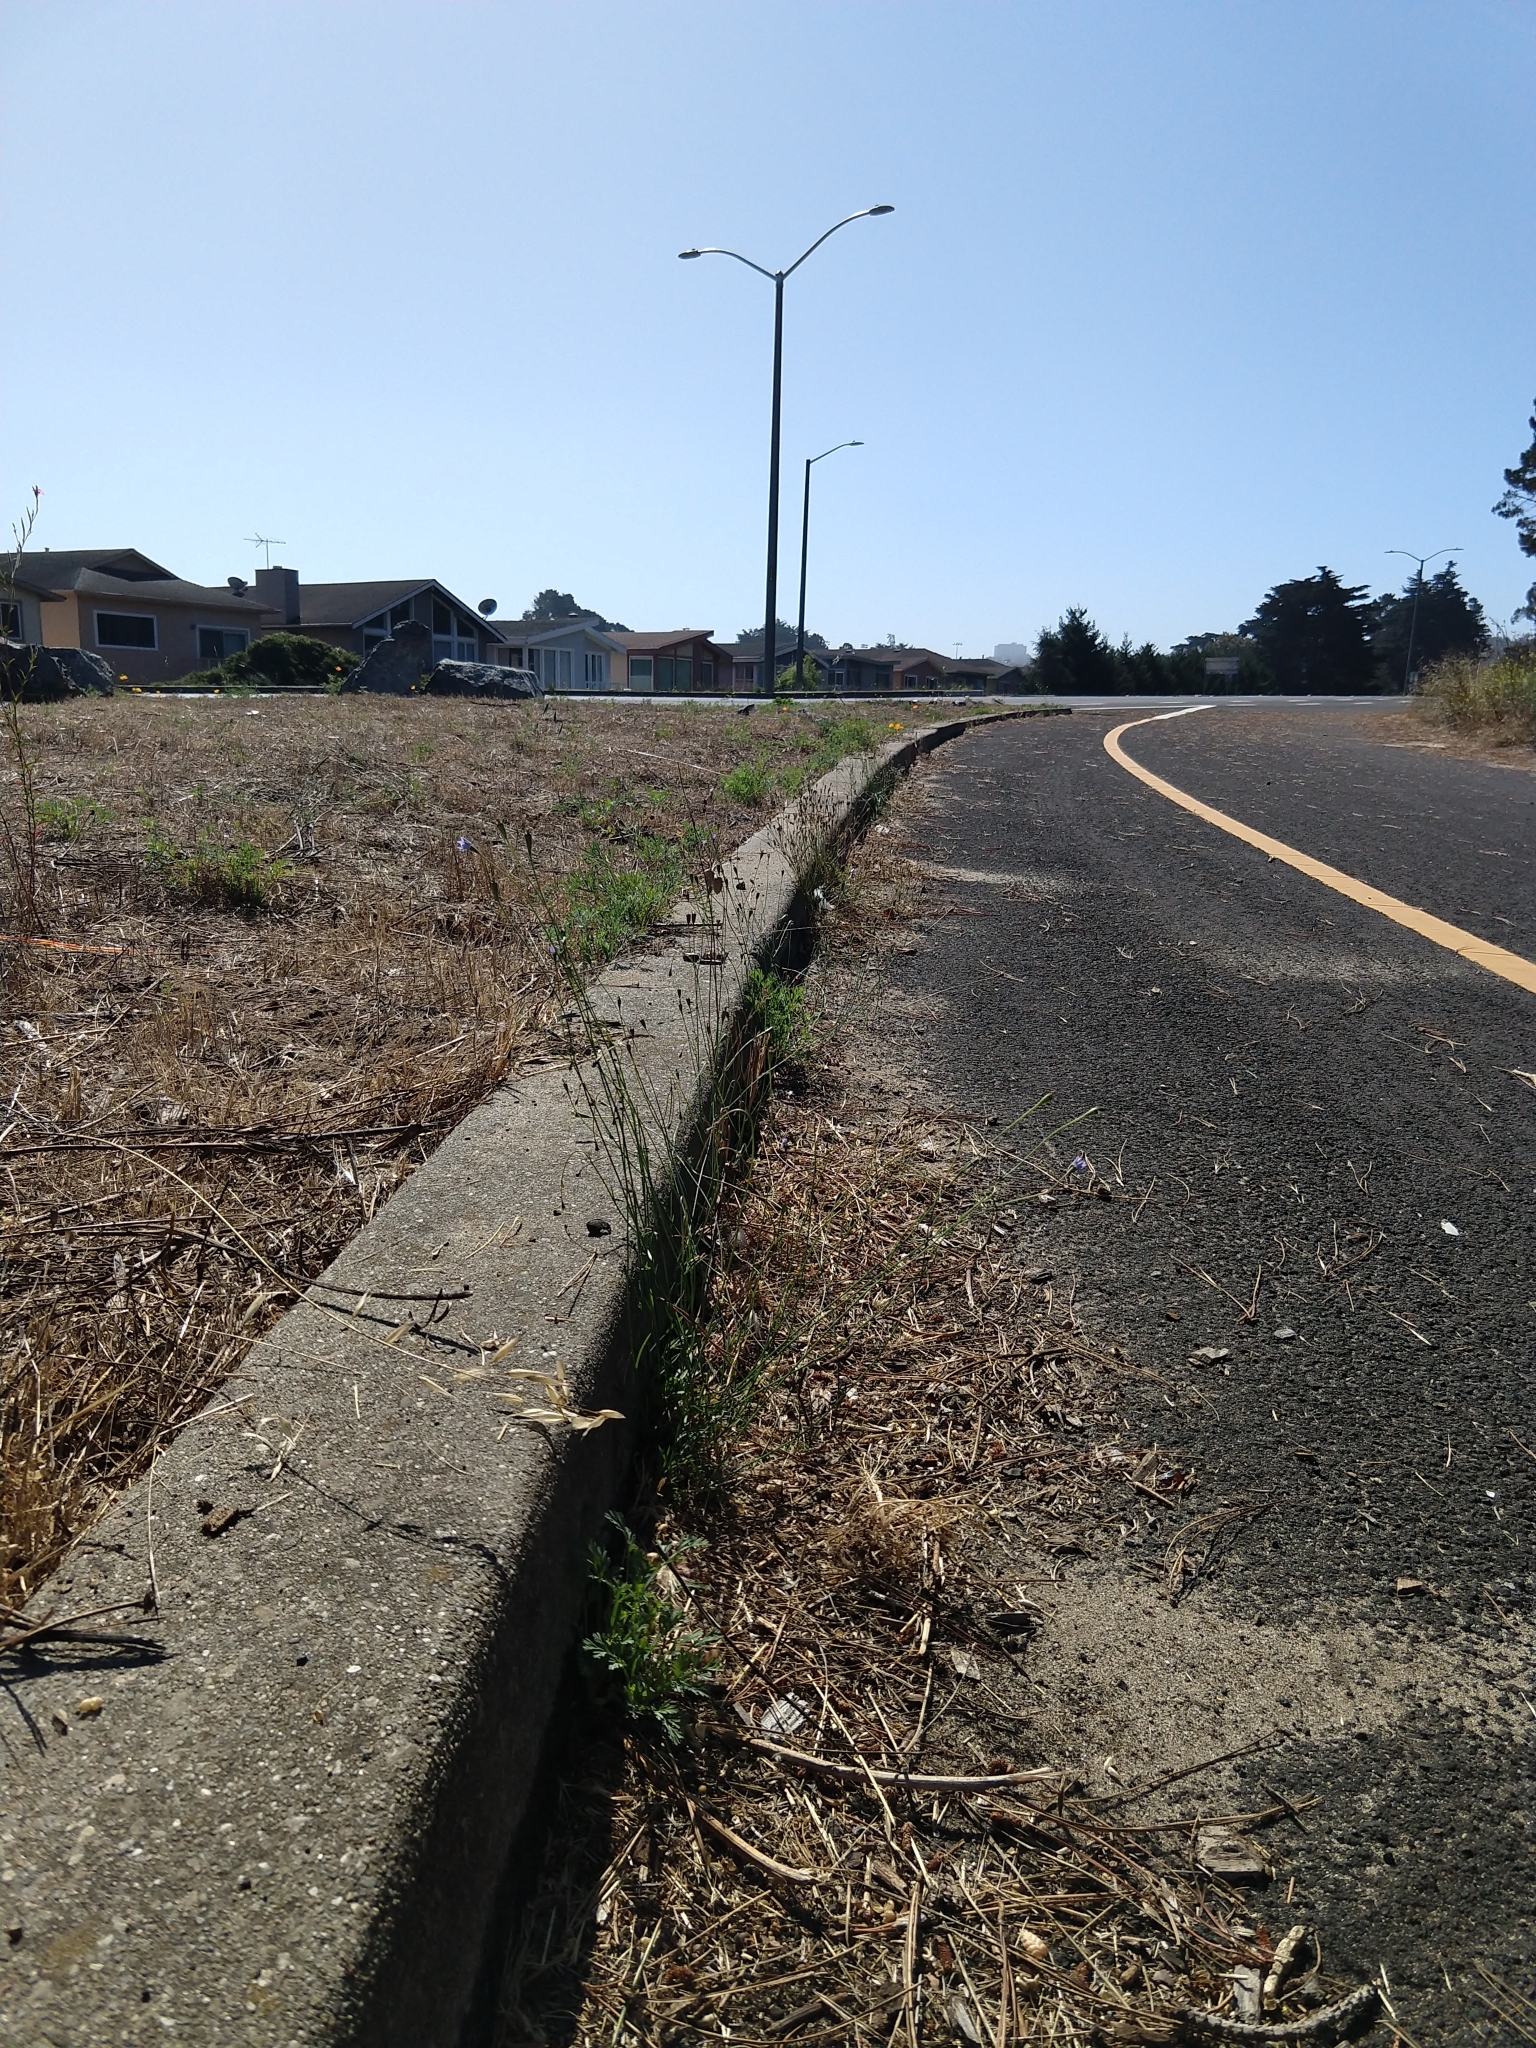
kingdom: Plantae
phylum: Tracheophyta
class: Magnoliopsida
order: Asterales
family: Campanulaceae
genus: Wahlenbergia
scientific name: Wahlenbergia marginata
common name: Southern rockbell
